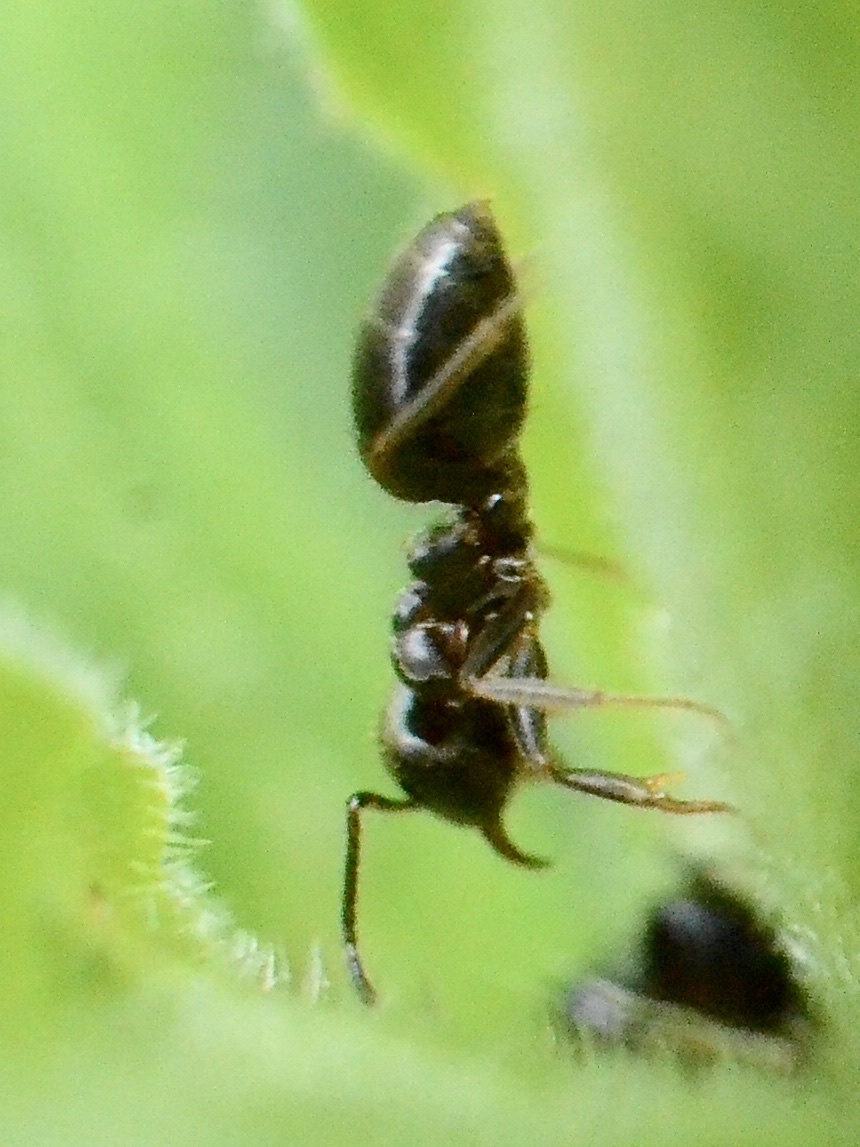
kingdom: Animalia
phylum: Arthropoda
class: Insecta
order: Hymenoptera
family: Formicidae
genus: Lasius
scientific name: Lasius
